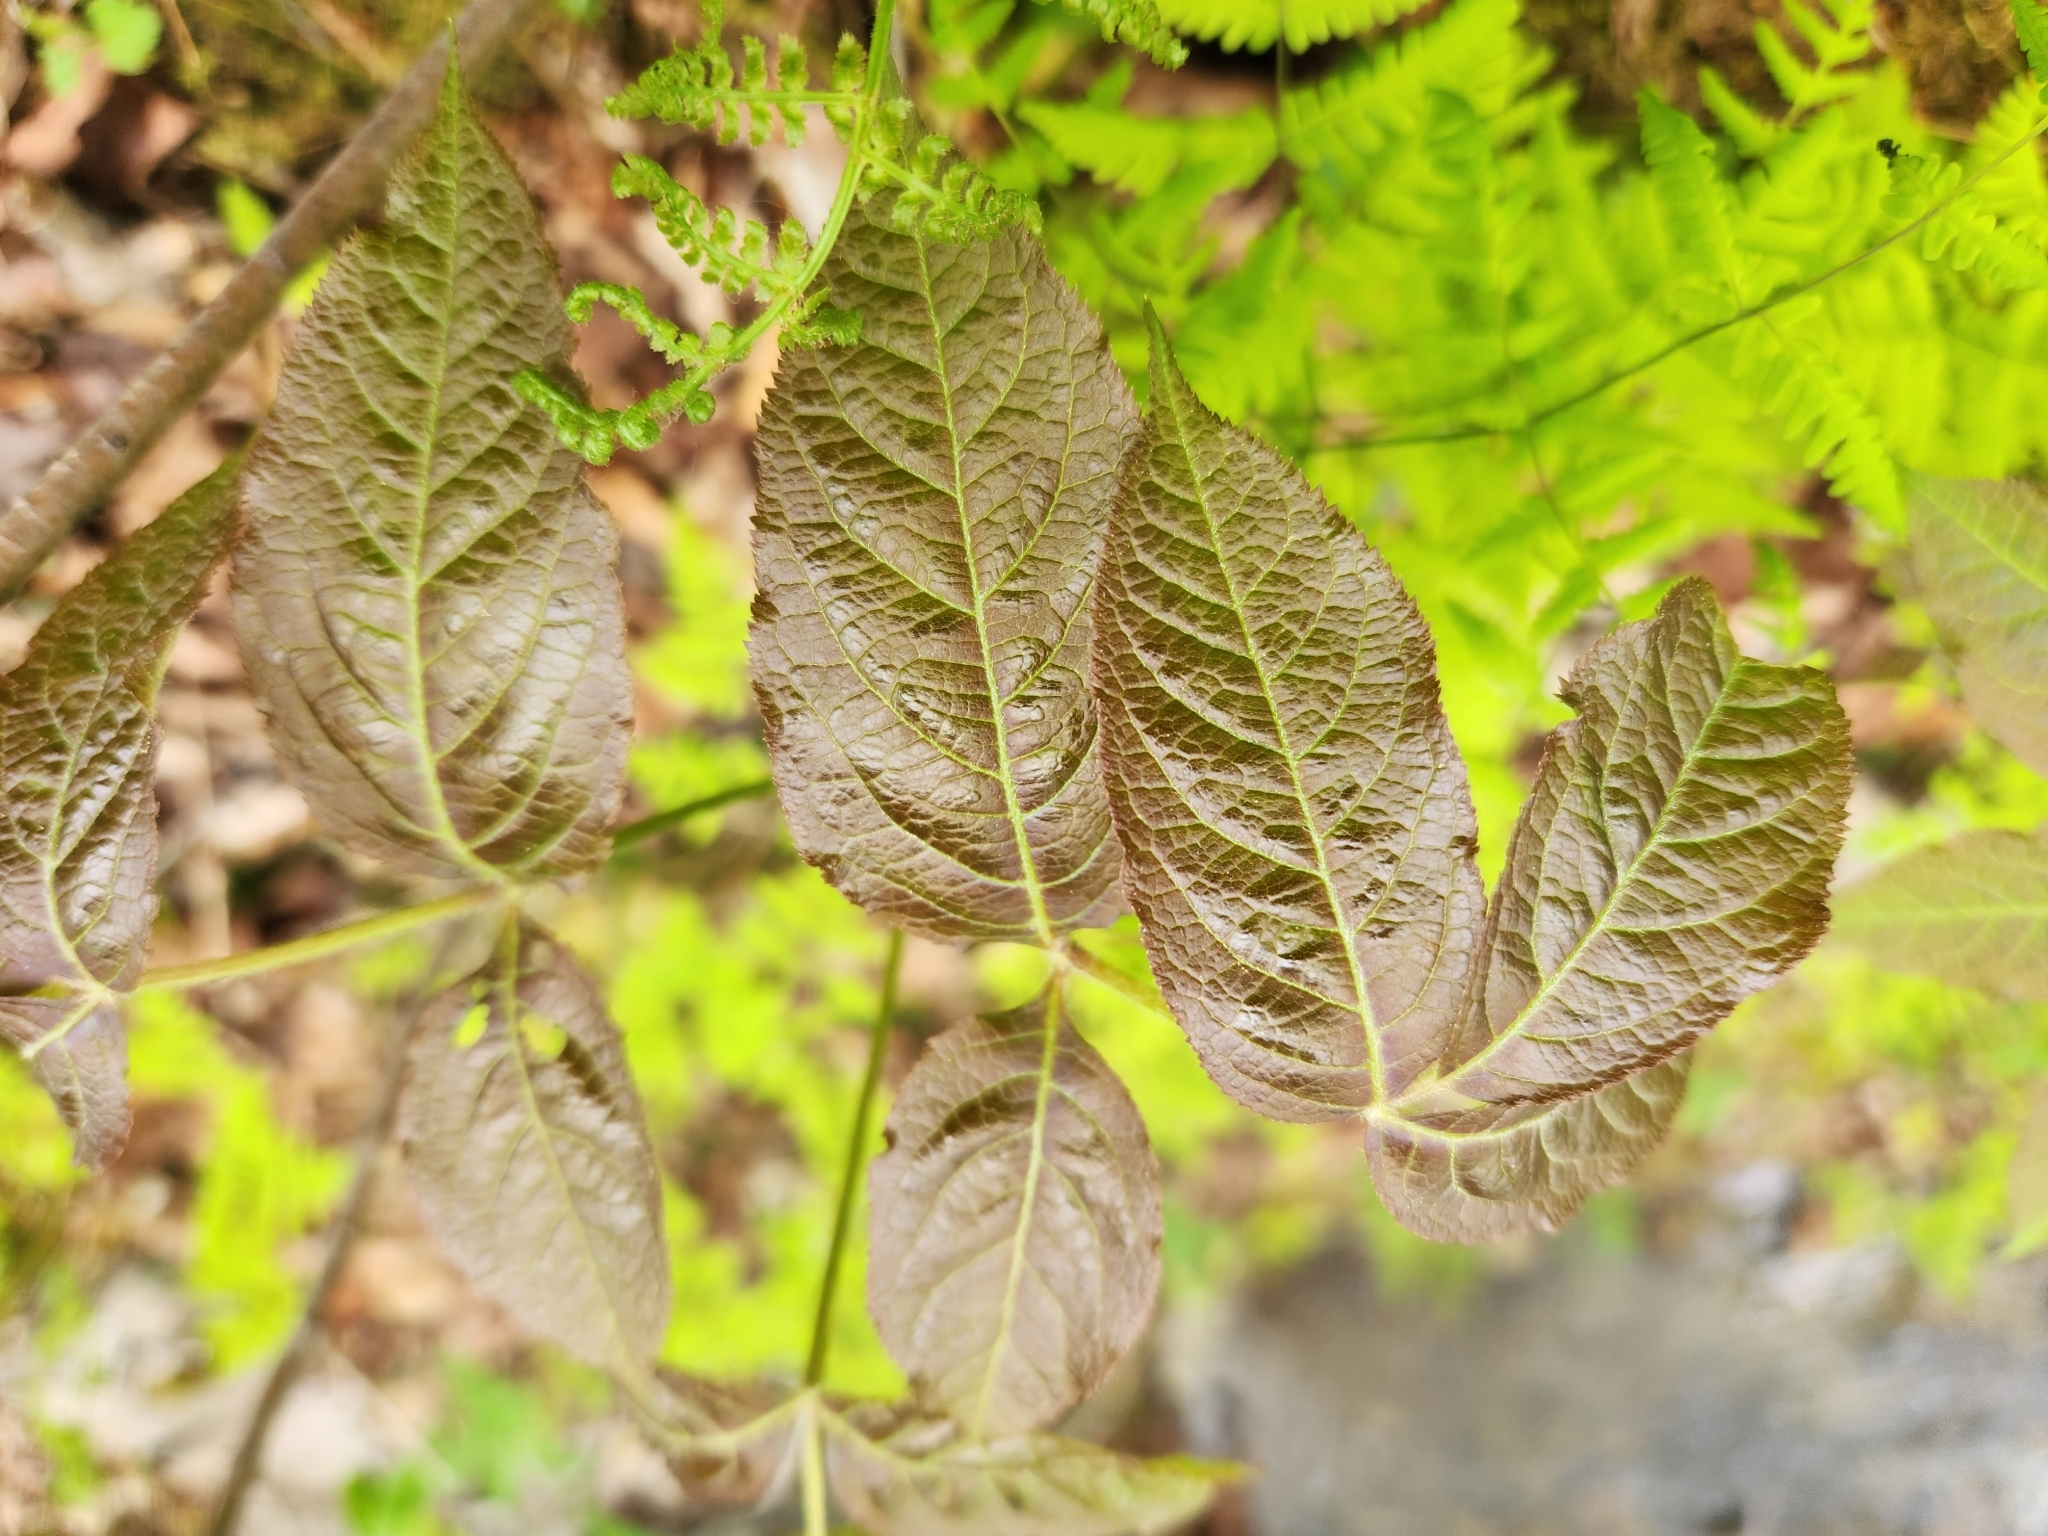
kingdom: Plantae
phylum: Tracheophyta
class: Magnoliopsida
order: Apiales
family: Araliaceae
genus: Aralia
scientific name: Aralia nudicaulis
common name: Wild sarsaparilla
